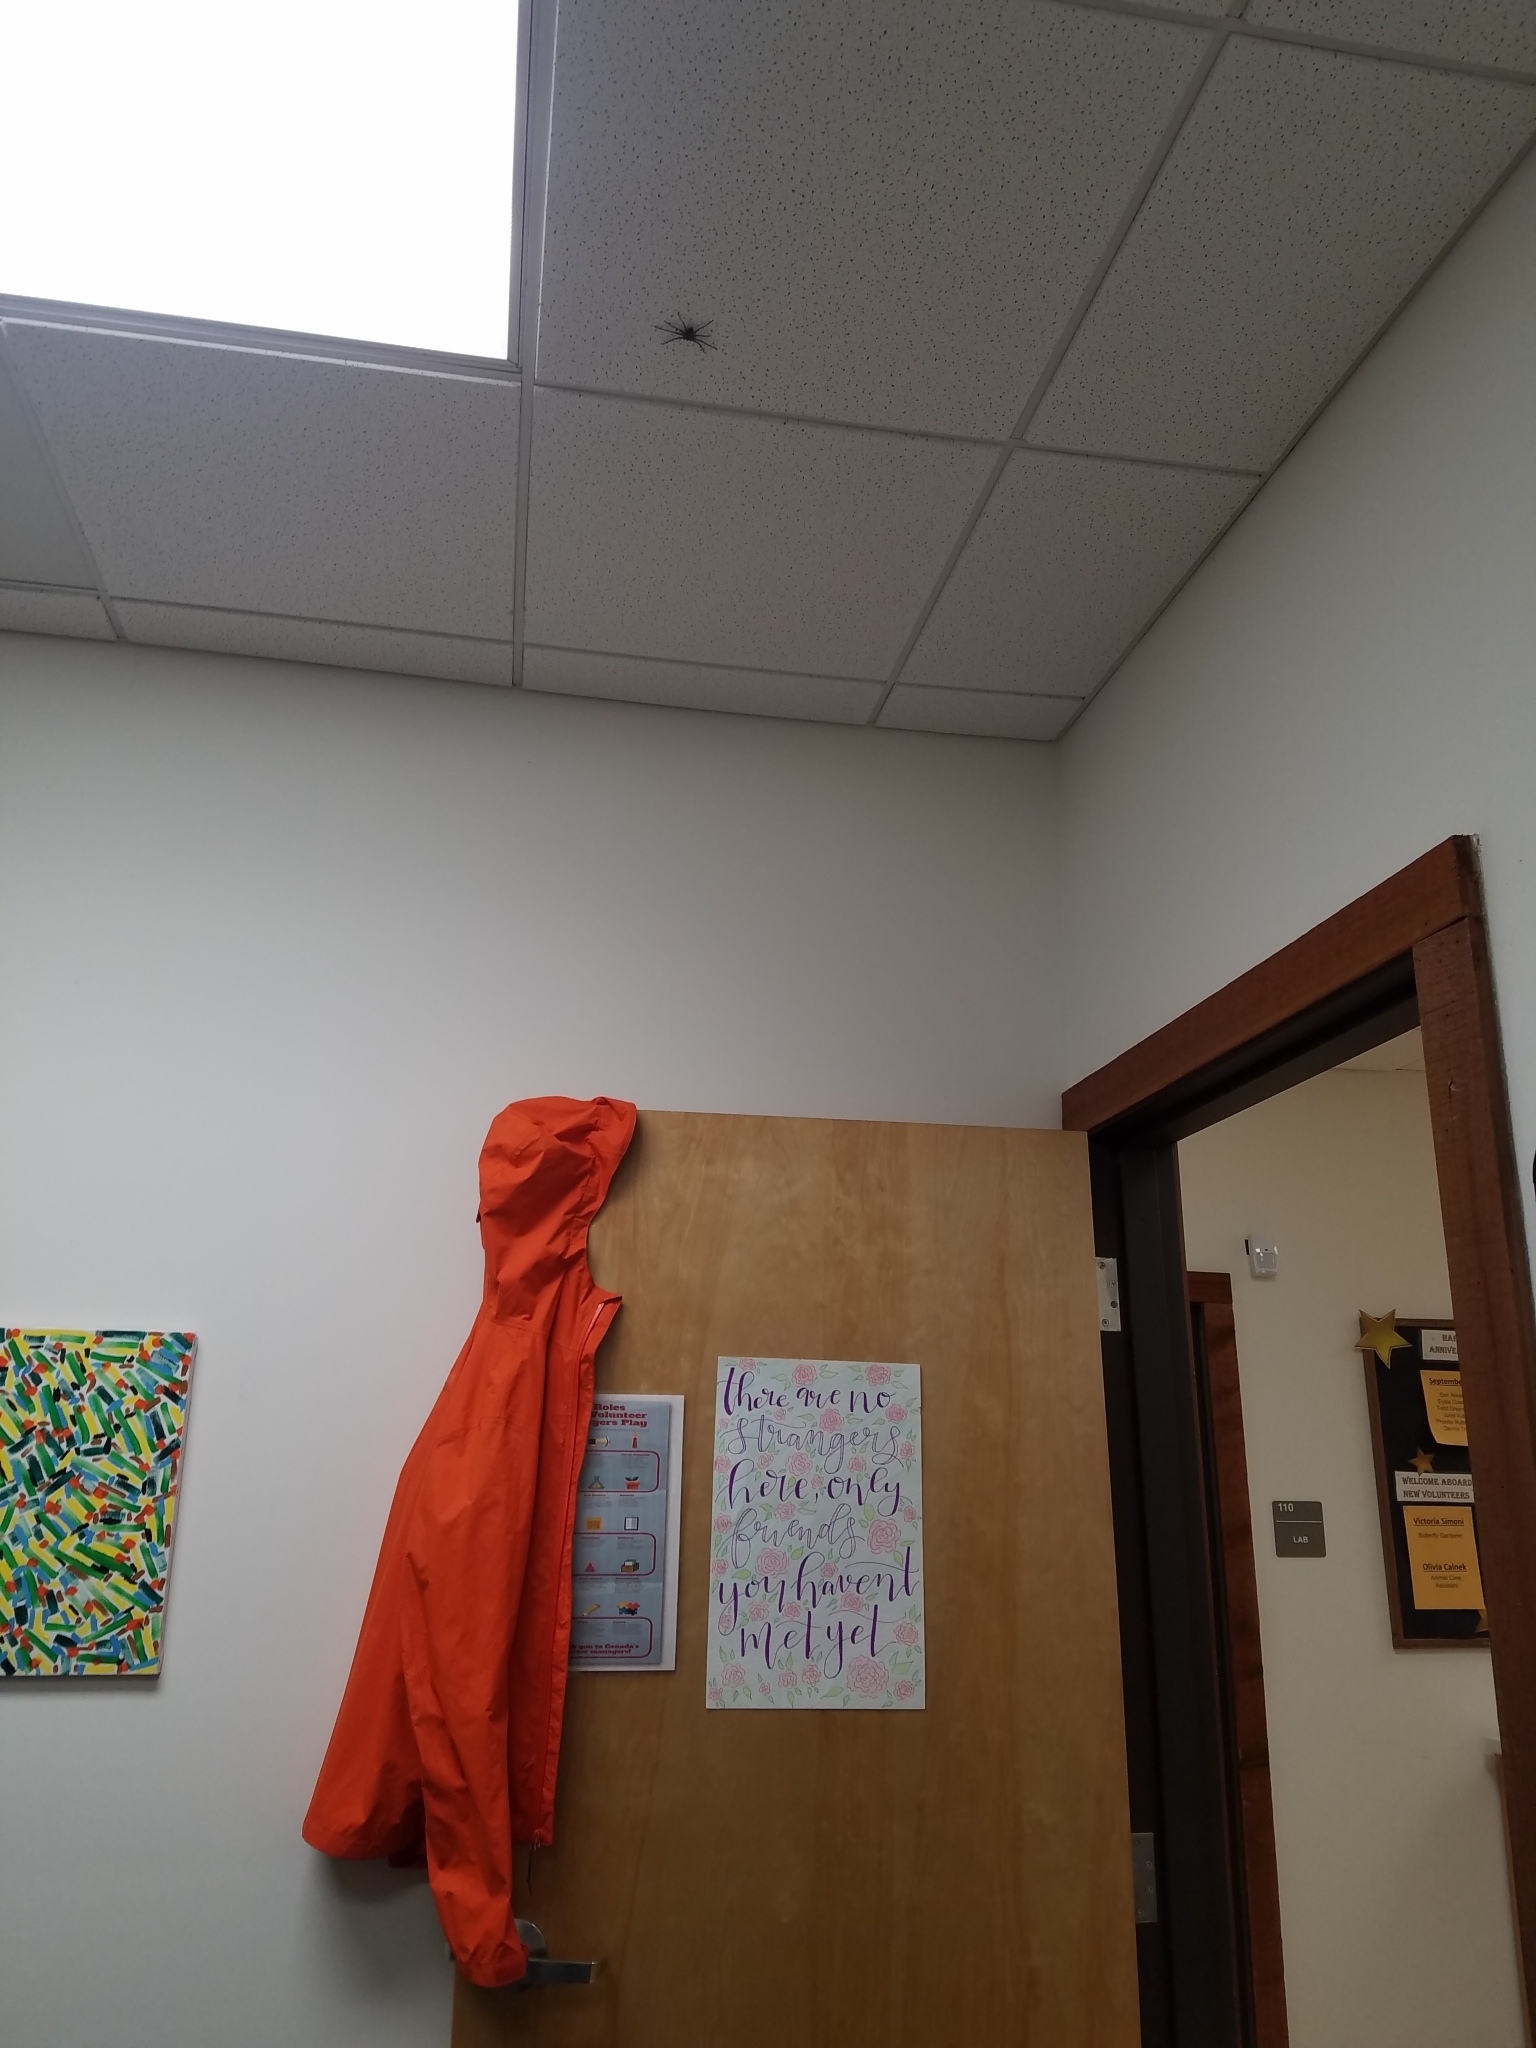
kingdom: Animalia
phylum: Arthropoda
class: Arachnida
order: Araneae
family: Sparassidae
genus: Heteropoda
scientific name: Heteropoda venatoria
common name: Huntsman spider
